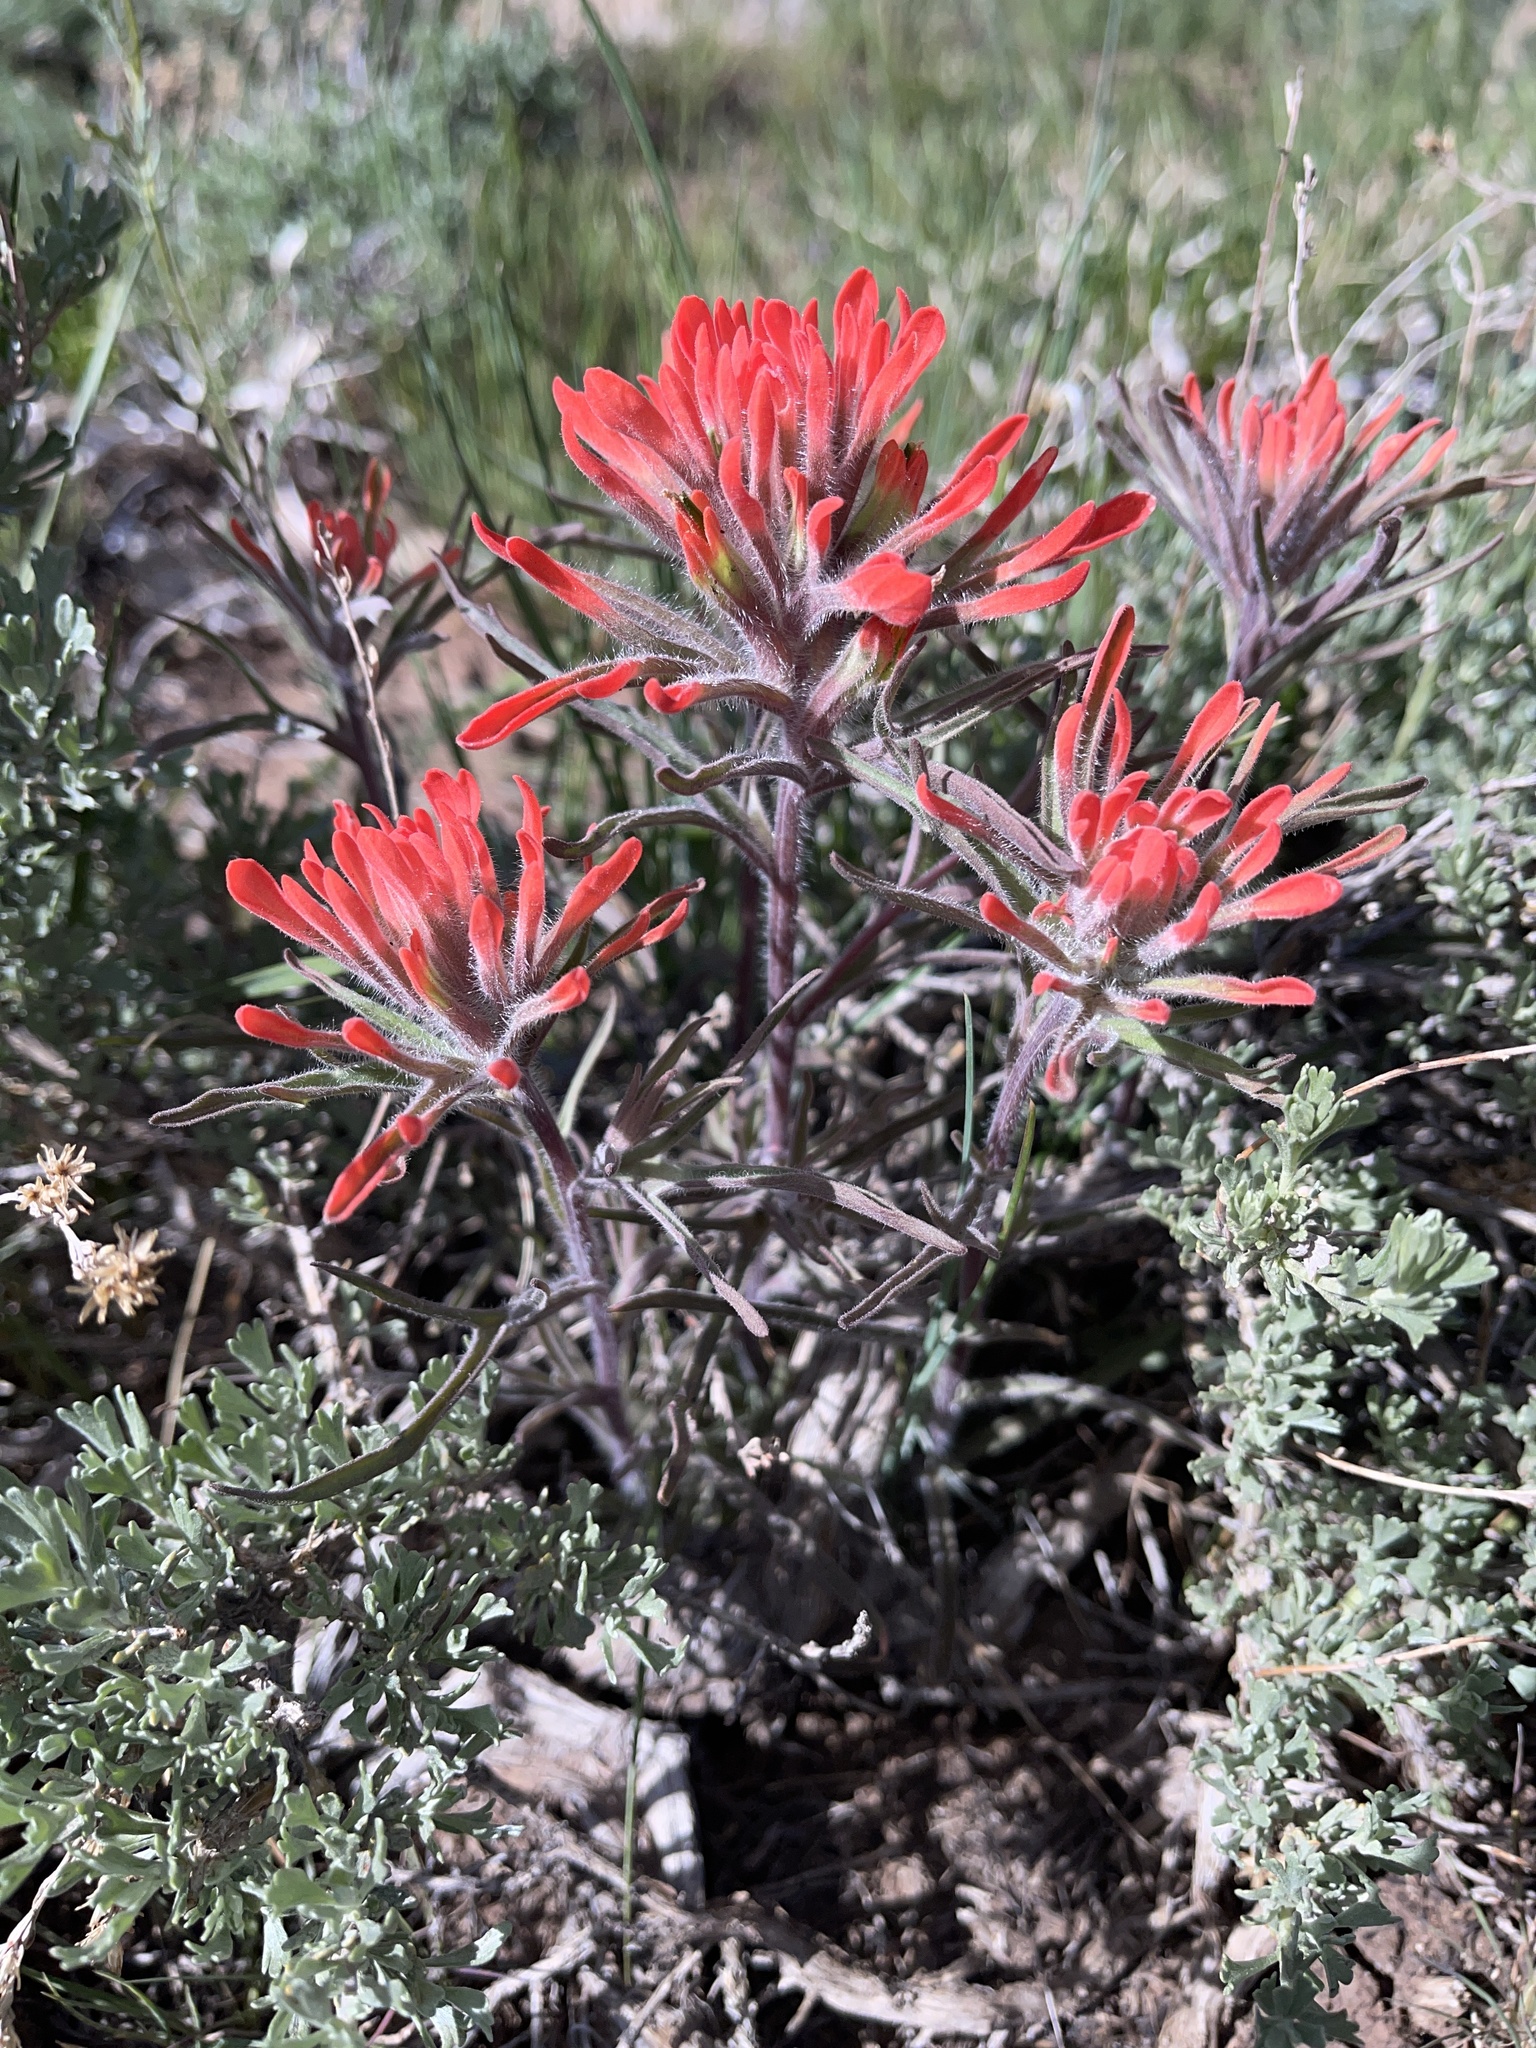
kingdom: Plantae
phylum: Tracheophyta
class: Magnoliopsida
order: Lamiales
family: Orobanchaceae
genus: Castilleja
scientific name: Castilleja chromosa
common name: Desert paintbrush
